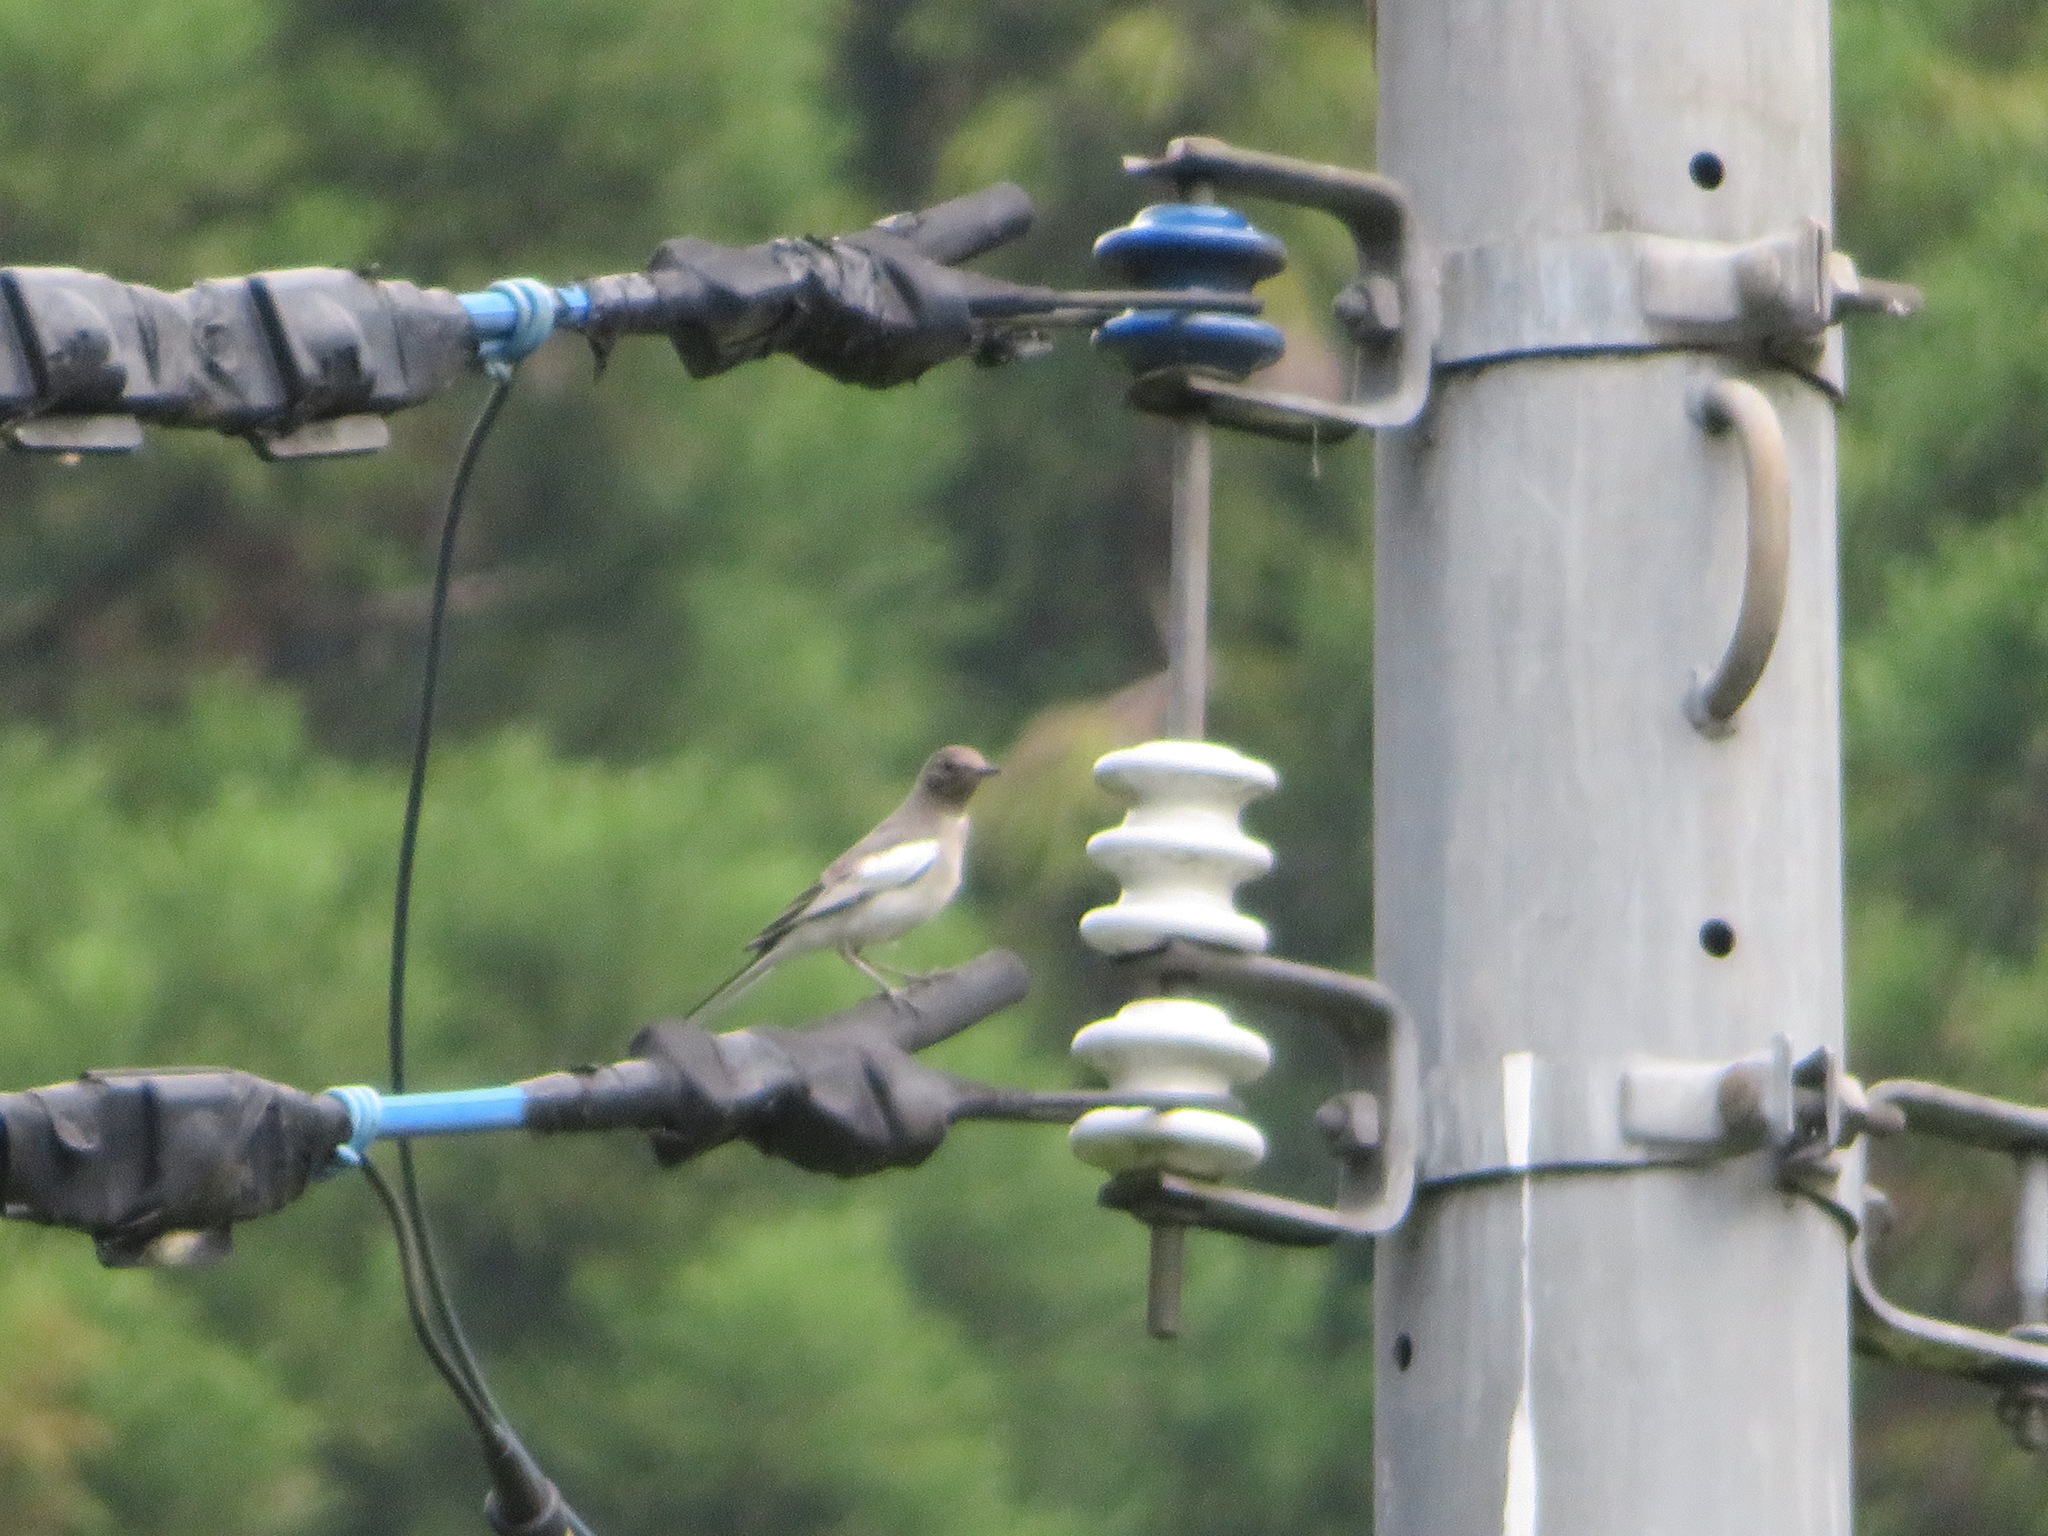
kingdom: Animalia
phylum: Chordata
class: Aves
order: Passeriformes
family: Motacillidae
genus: Motacilla
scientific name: Motacilla grandis
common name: Japanese wagtail
